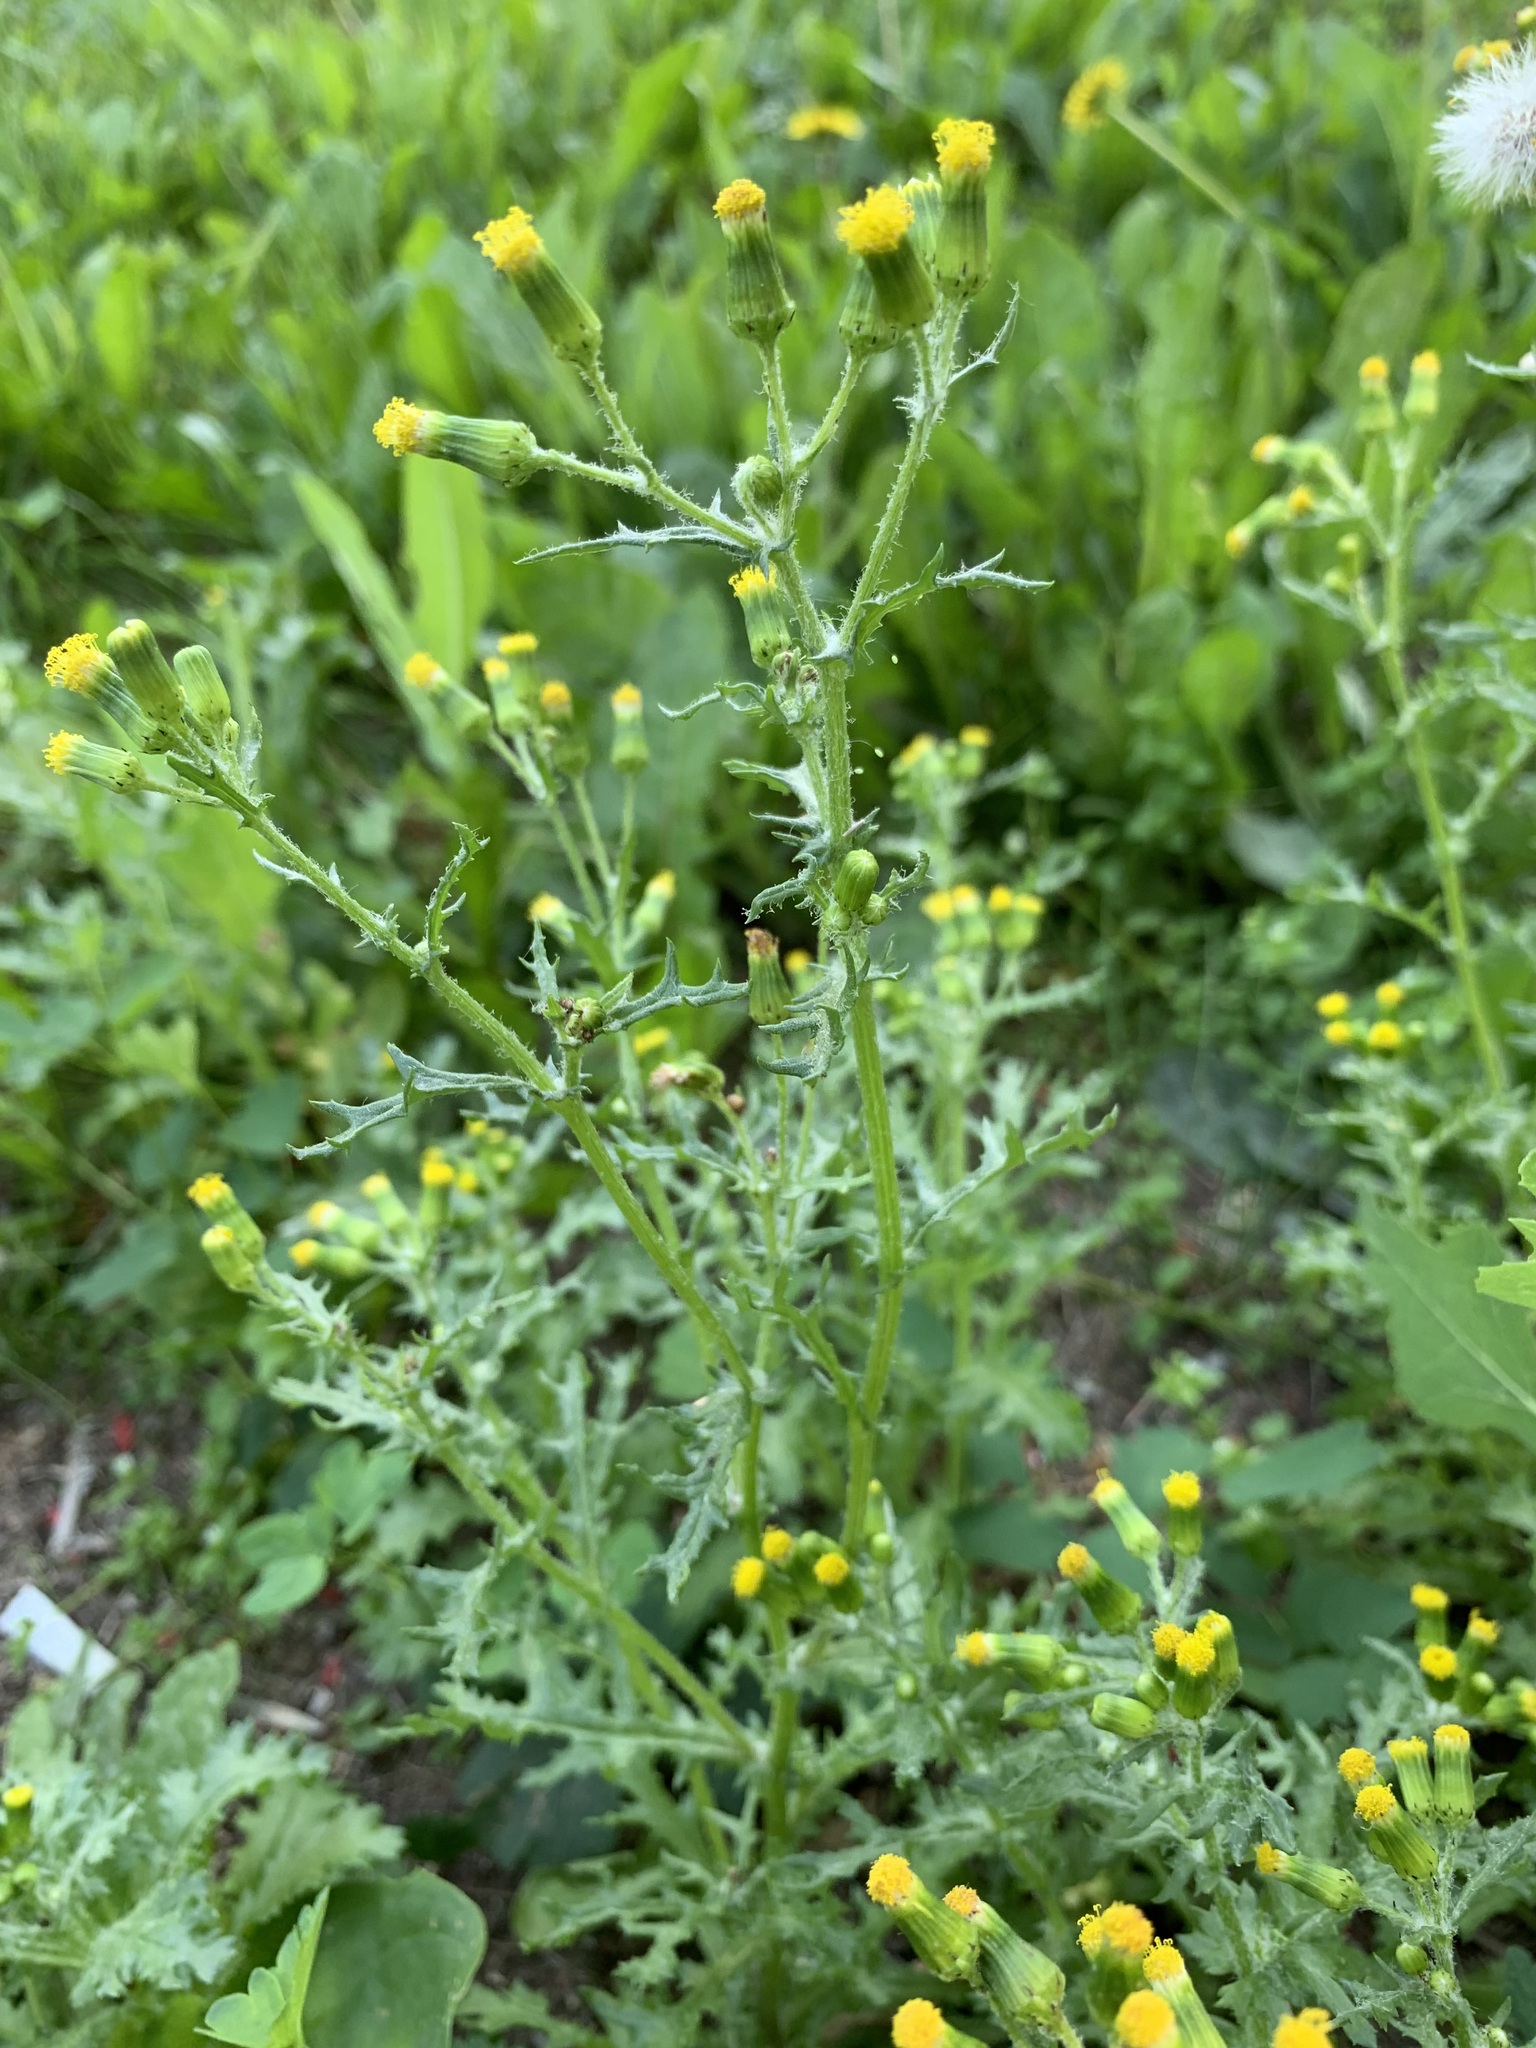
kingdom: Plantae
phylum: Tracheophyta
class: Magnoliopsida
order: Asterales
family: Asteraceae
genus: Senecio
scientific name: Senecio vulgaris
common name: Old-man-in-the-spring
